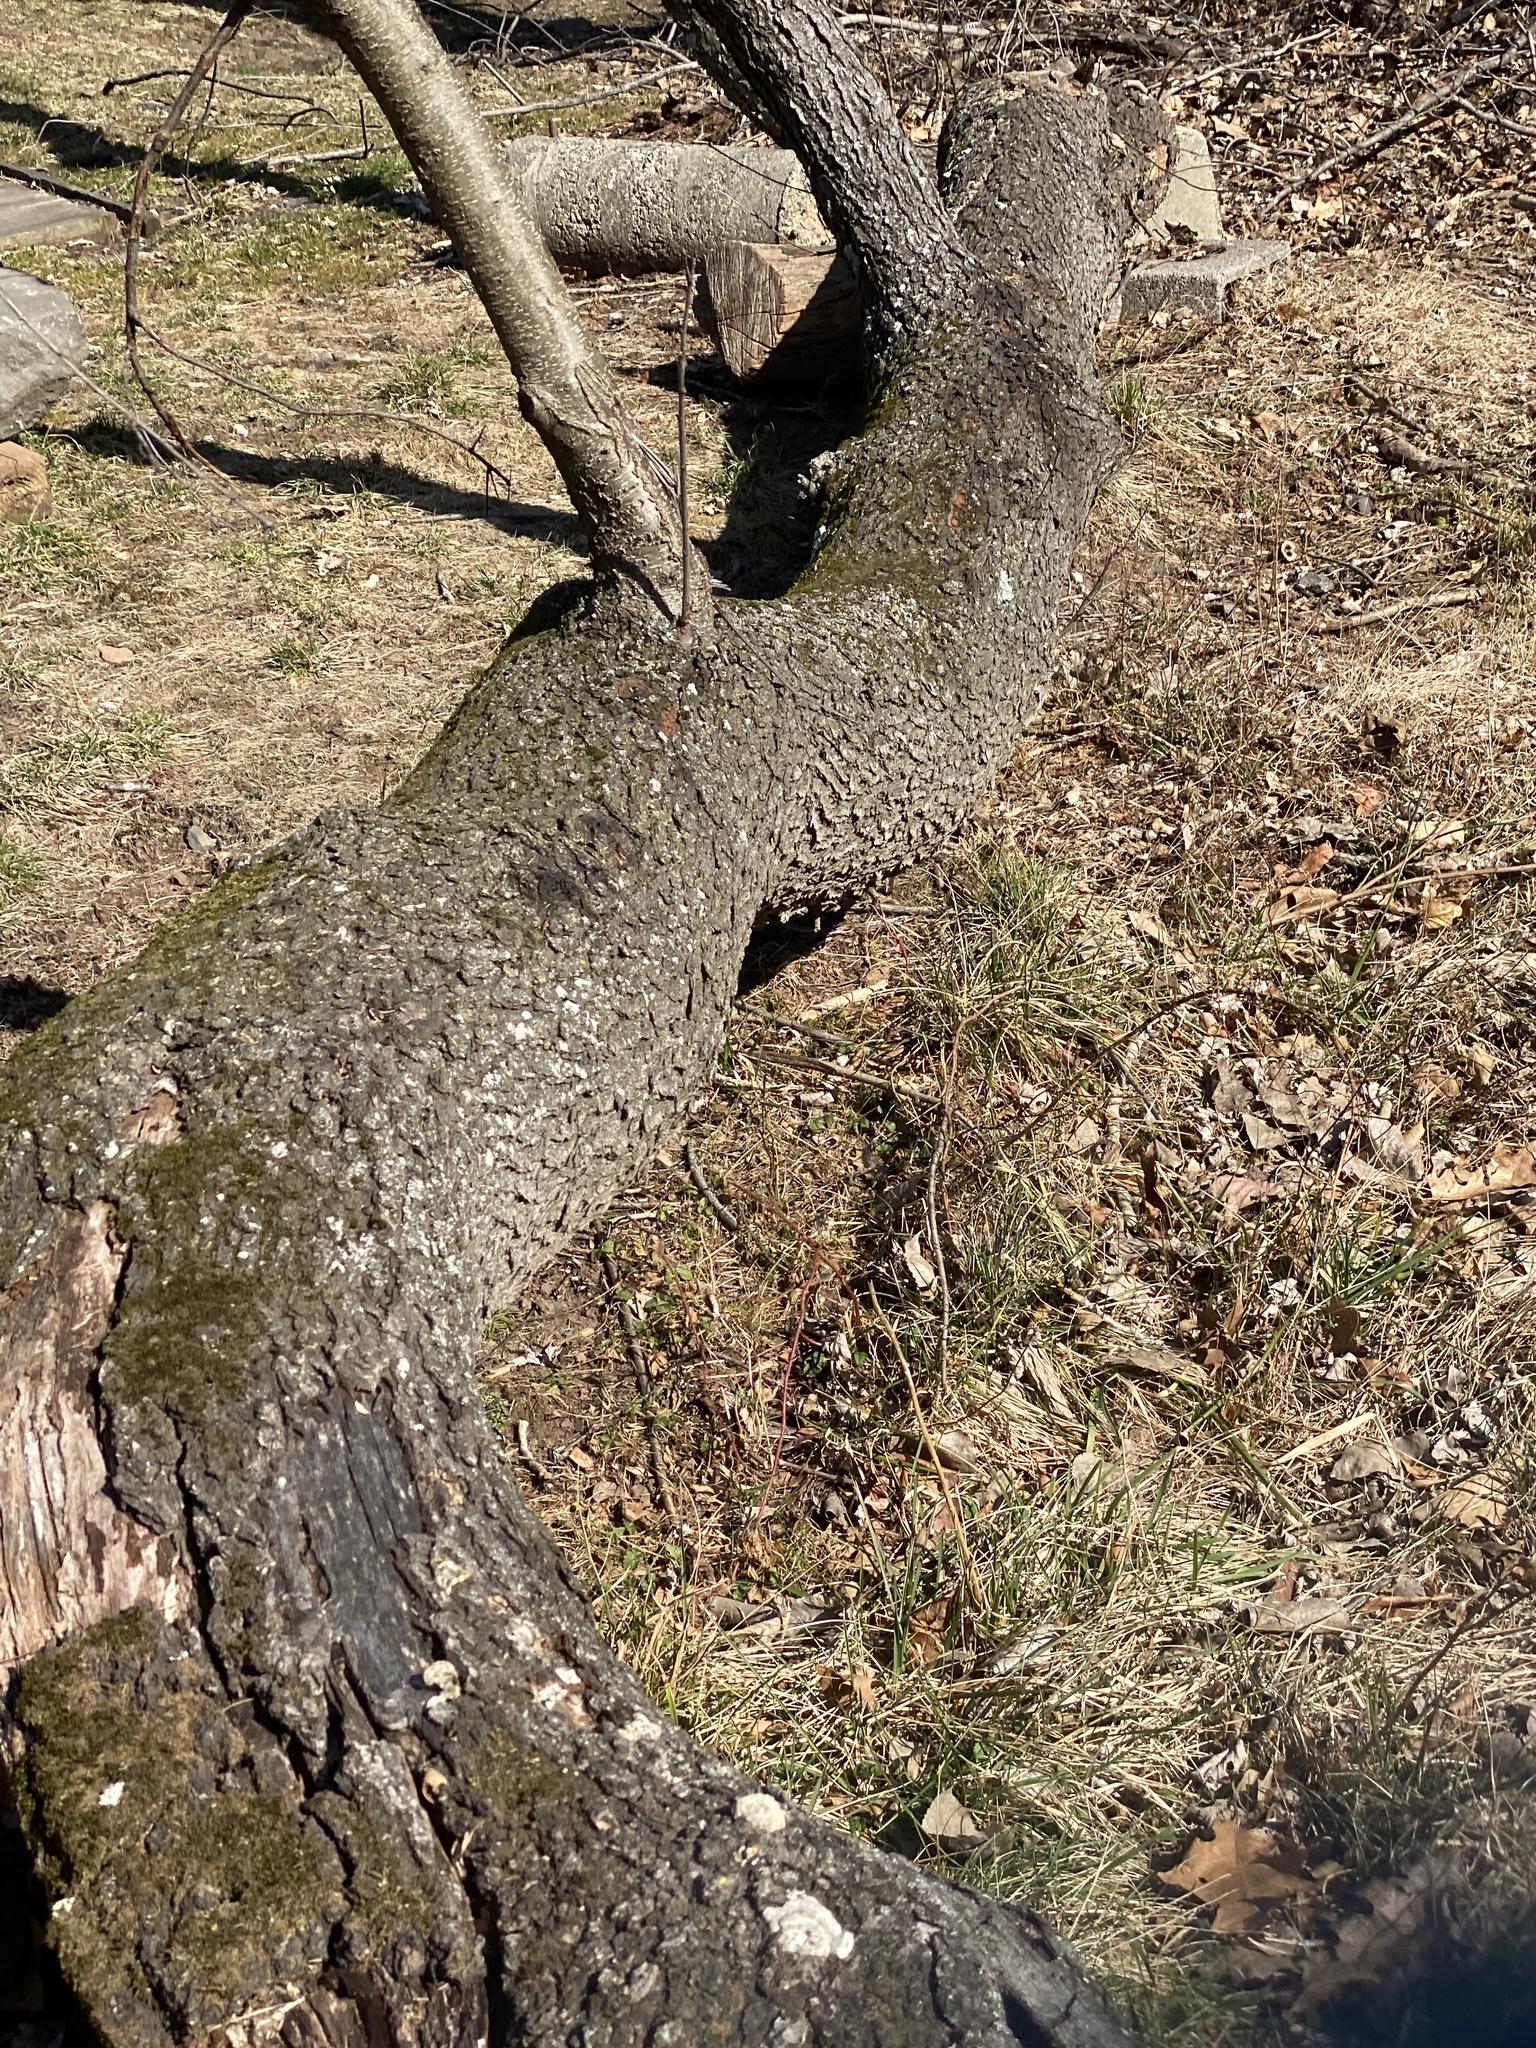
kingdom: Plantae
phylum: Tracheophyta
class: Magnoliopsida
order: Rosales
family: Rosaceae
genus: Prunus
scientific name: Prunus serotina
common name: Black cherry
